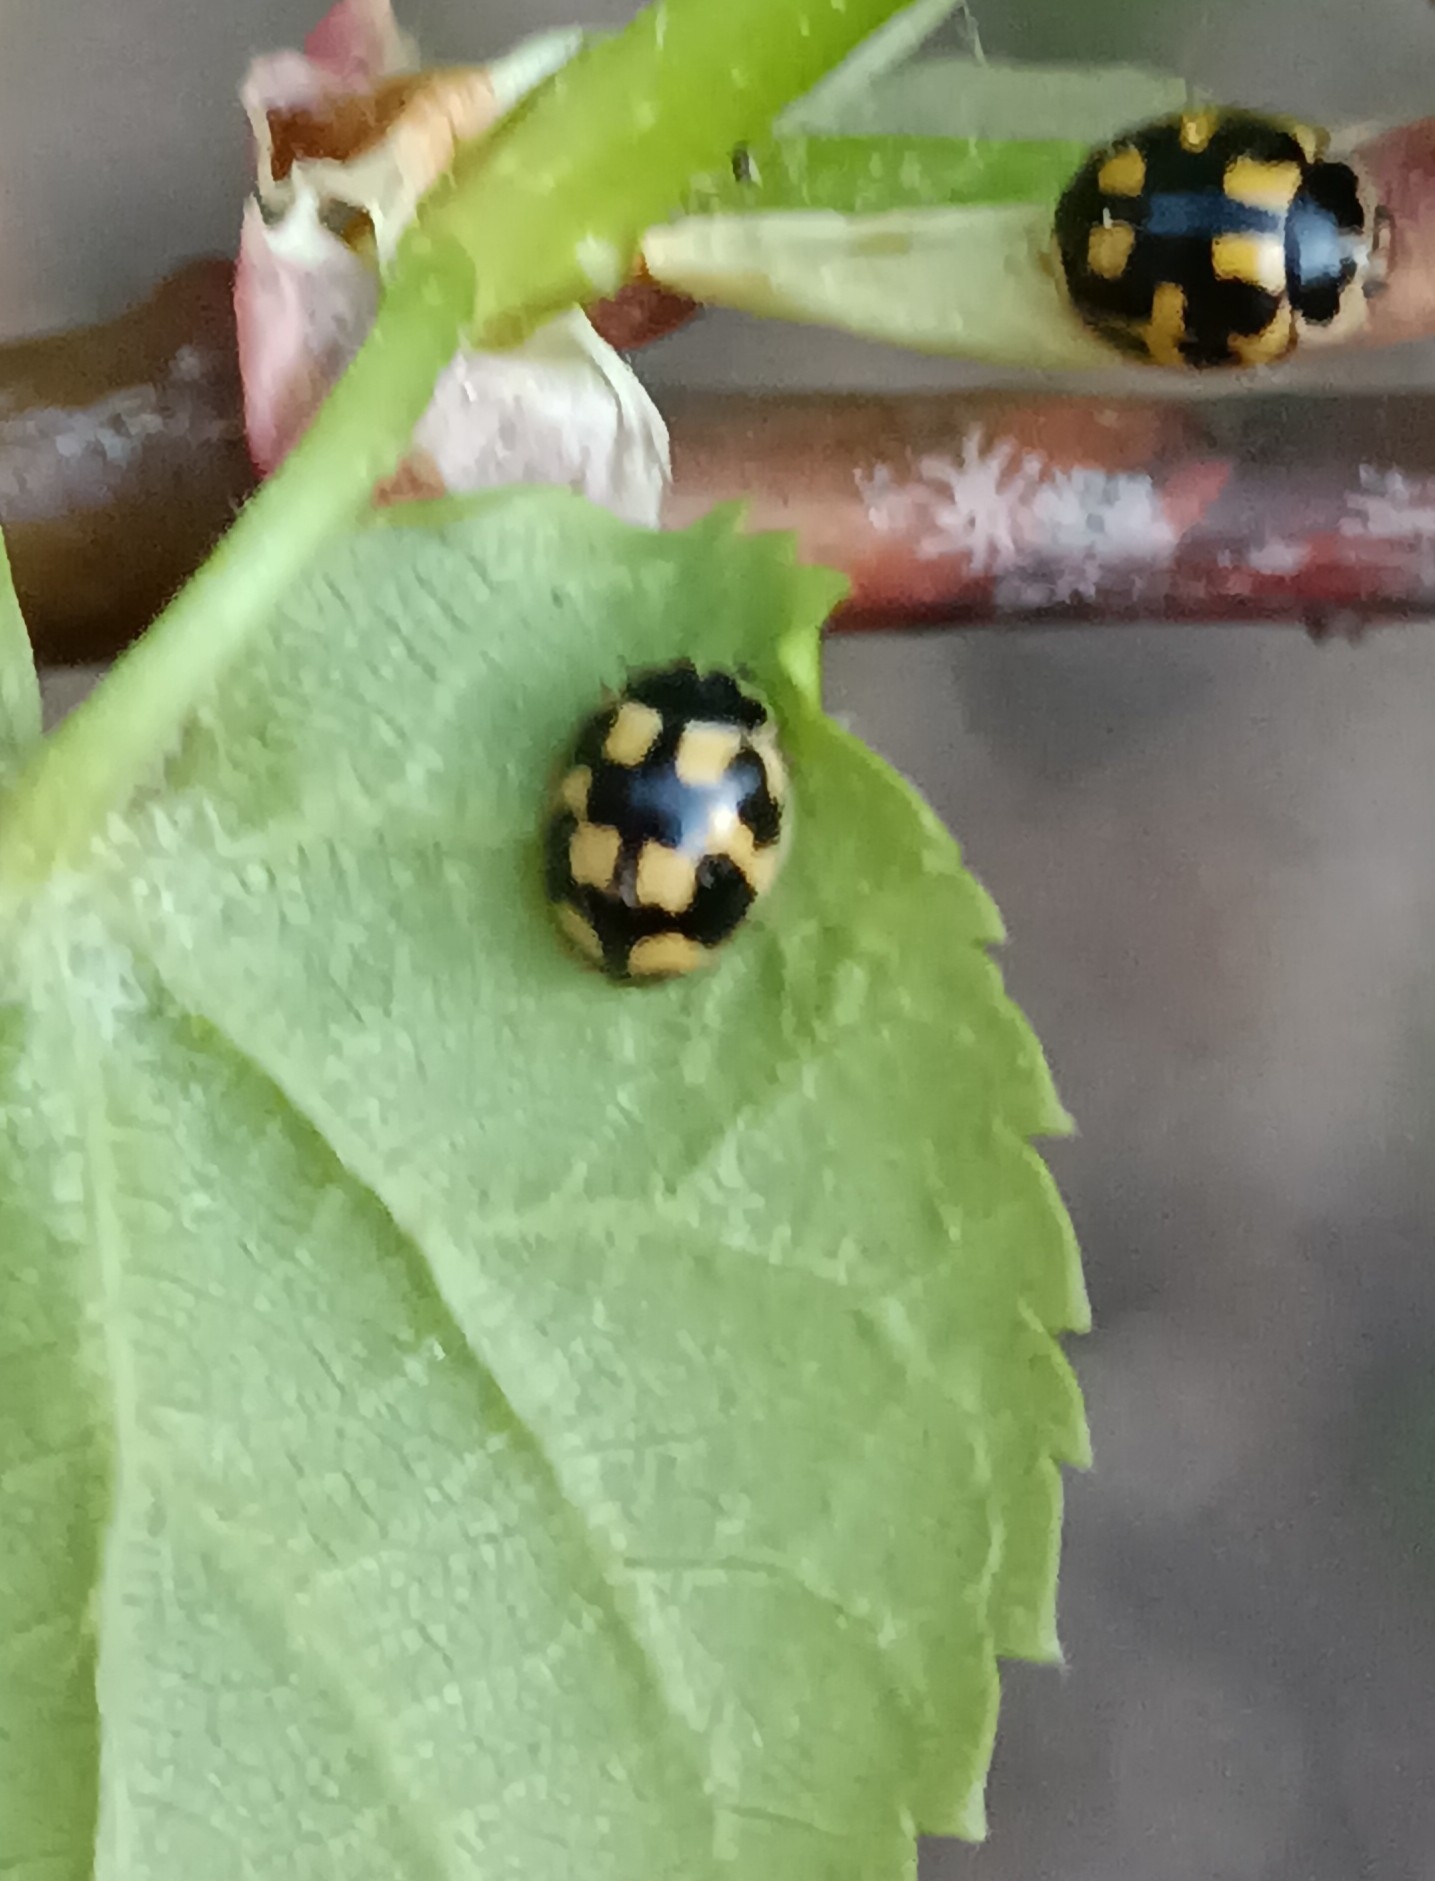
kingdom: Animalia
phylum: Arthropoda
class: Insecta
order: Coleoptera
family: Coccinellidae
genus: Propylaea
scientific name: Propylaea quatuordecimpunctata
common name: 14-spotted ladybird beetle
